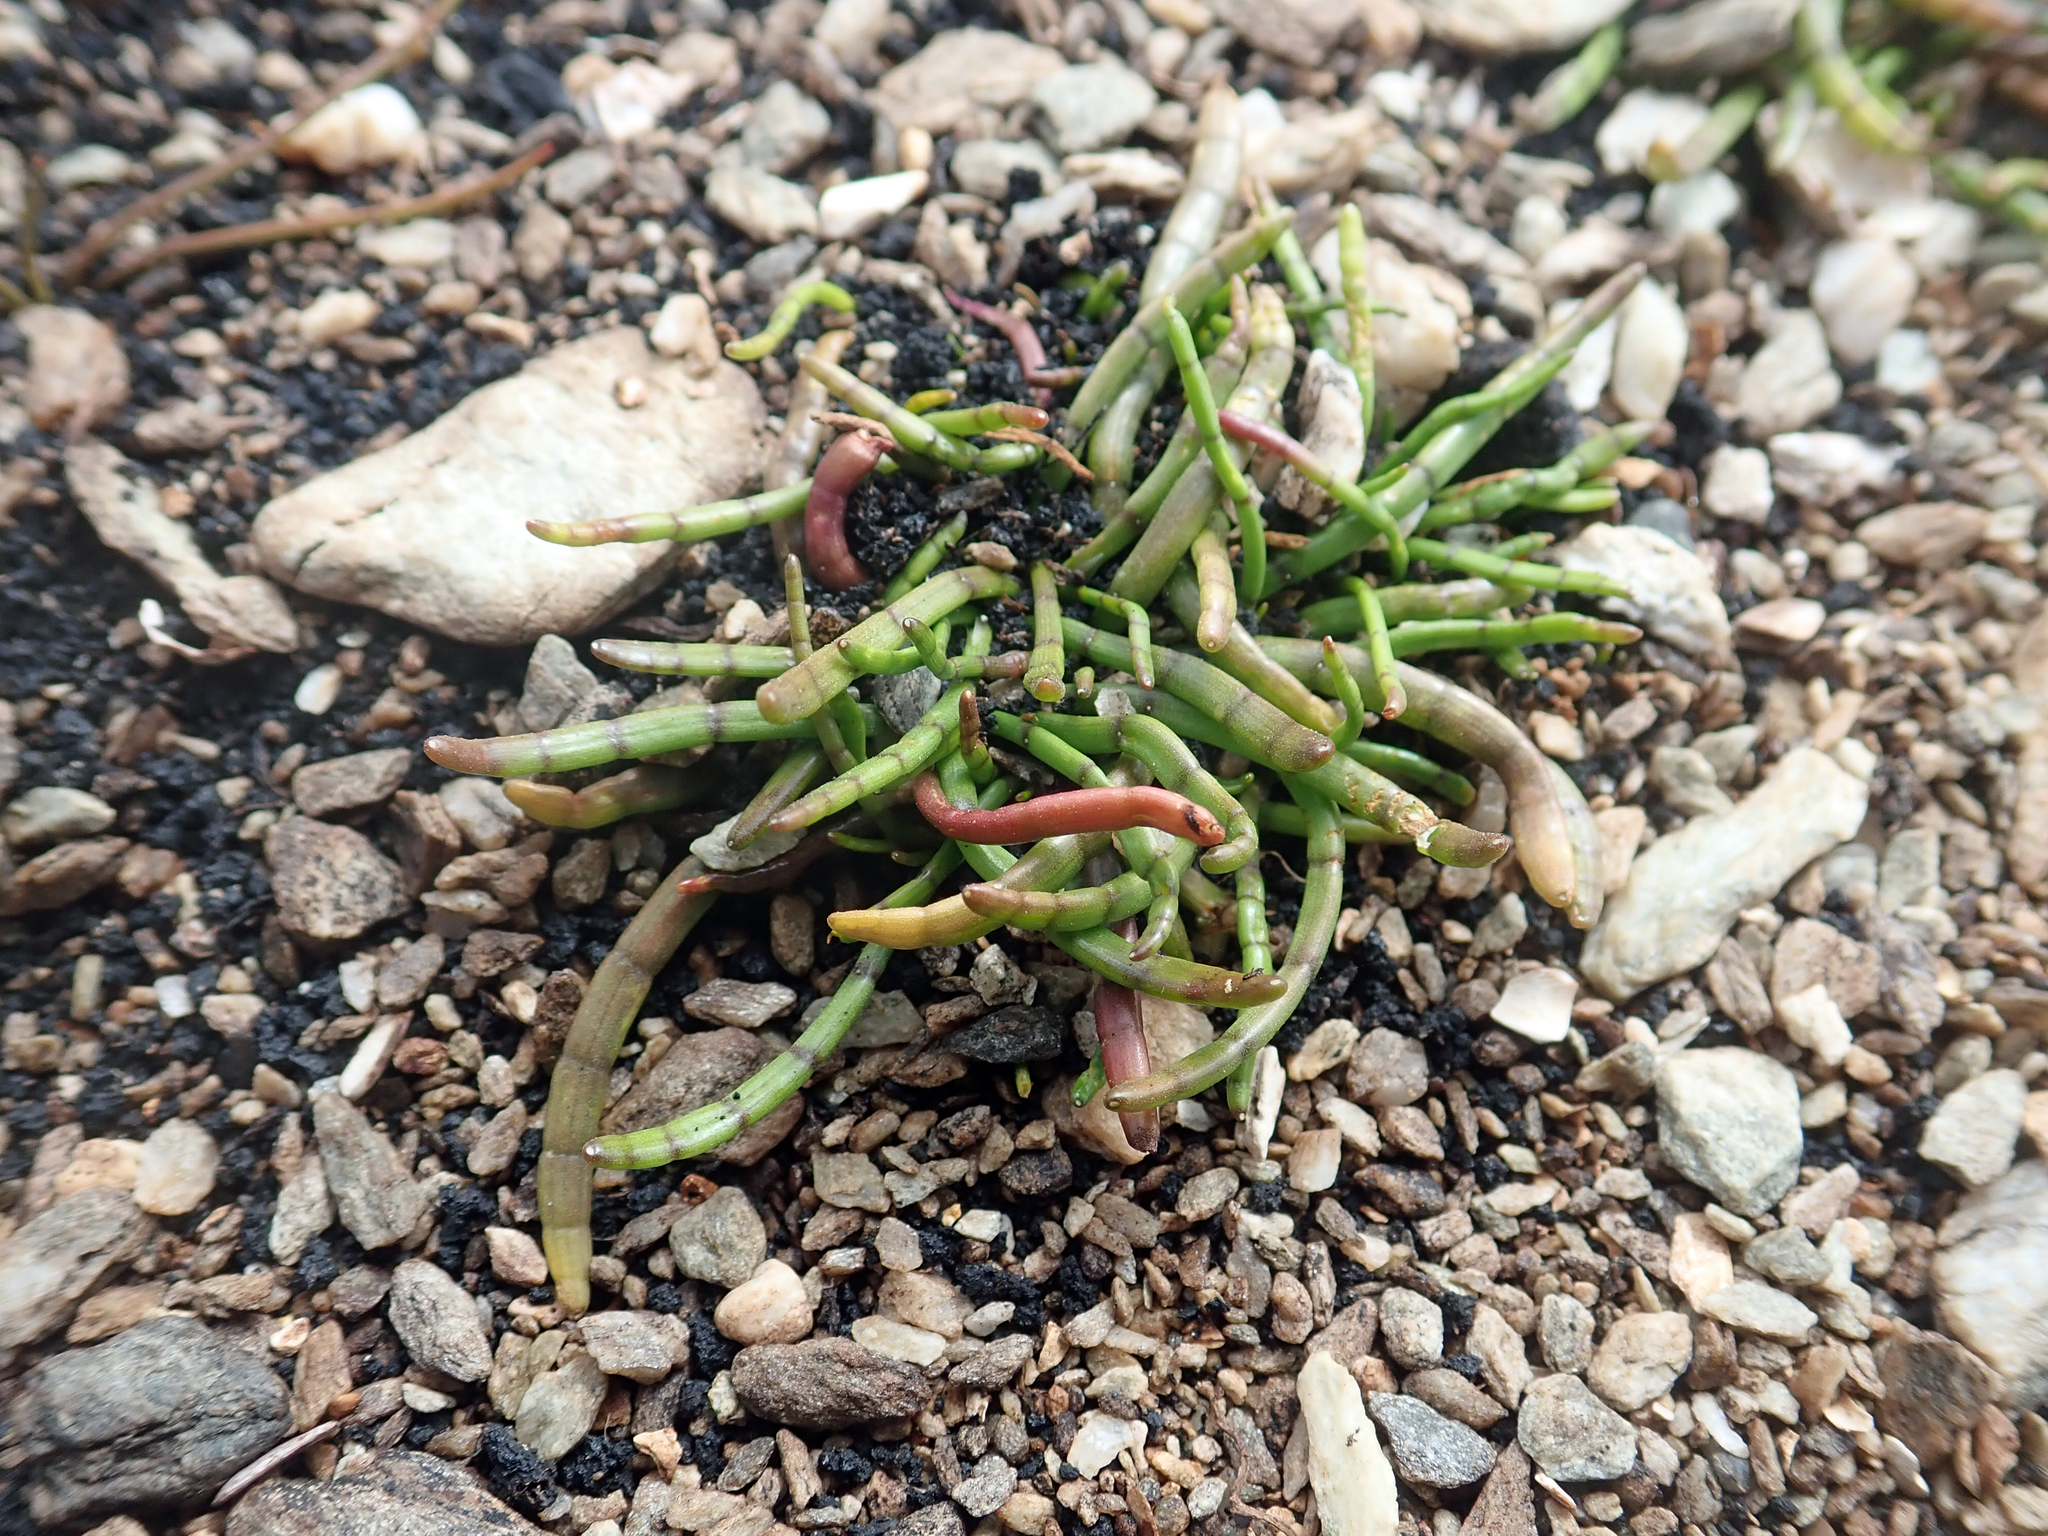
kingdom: Plantae
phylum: Tracheophyta
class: Magnoliopsida
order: Apiales
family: Apiaceae
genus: Lilaeopsis
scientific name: Lilaeopsis novae-zelandiae
